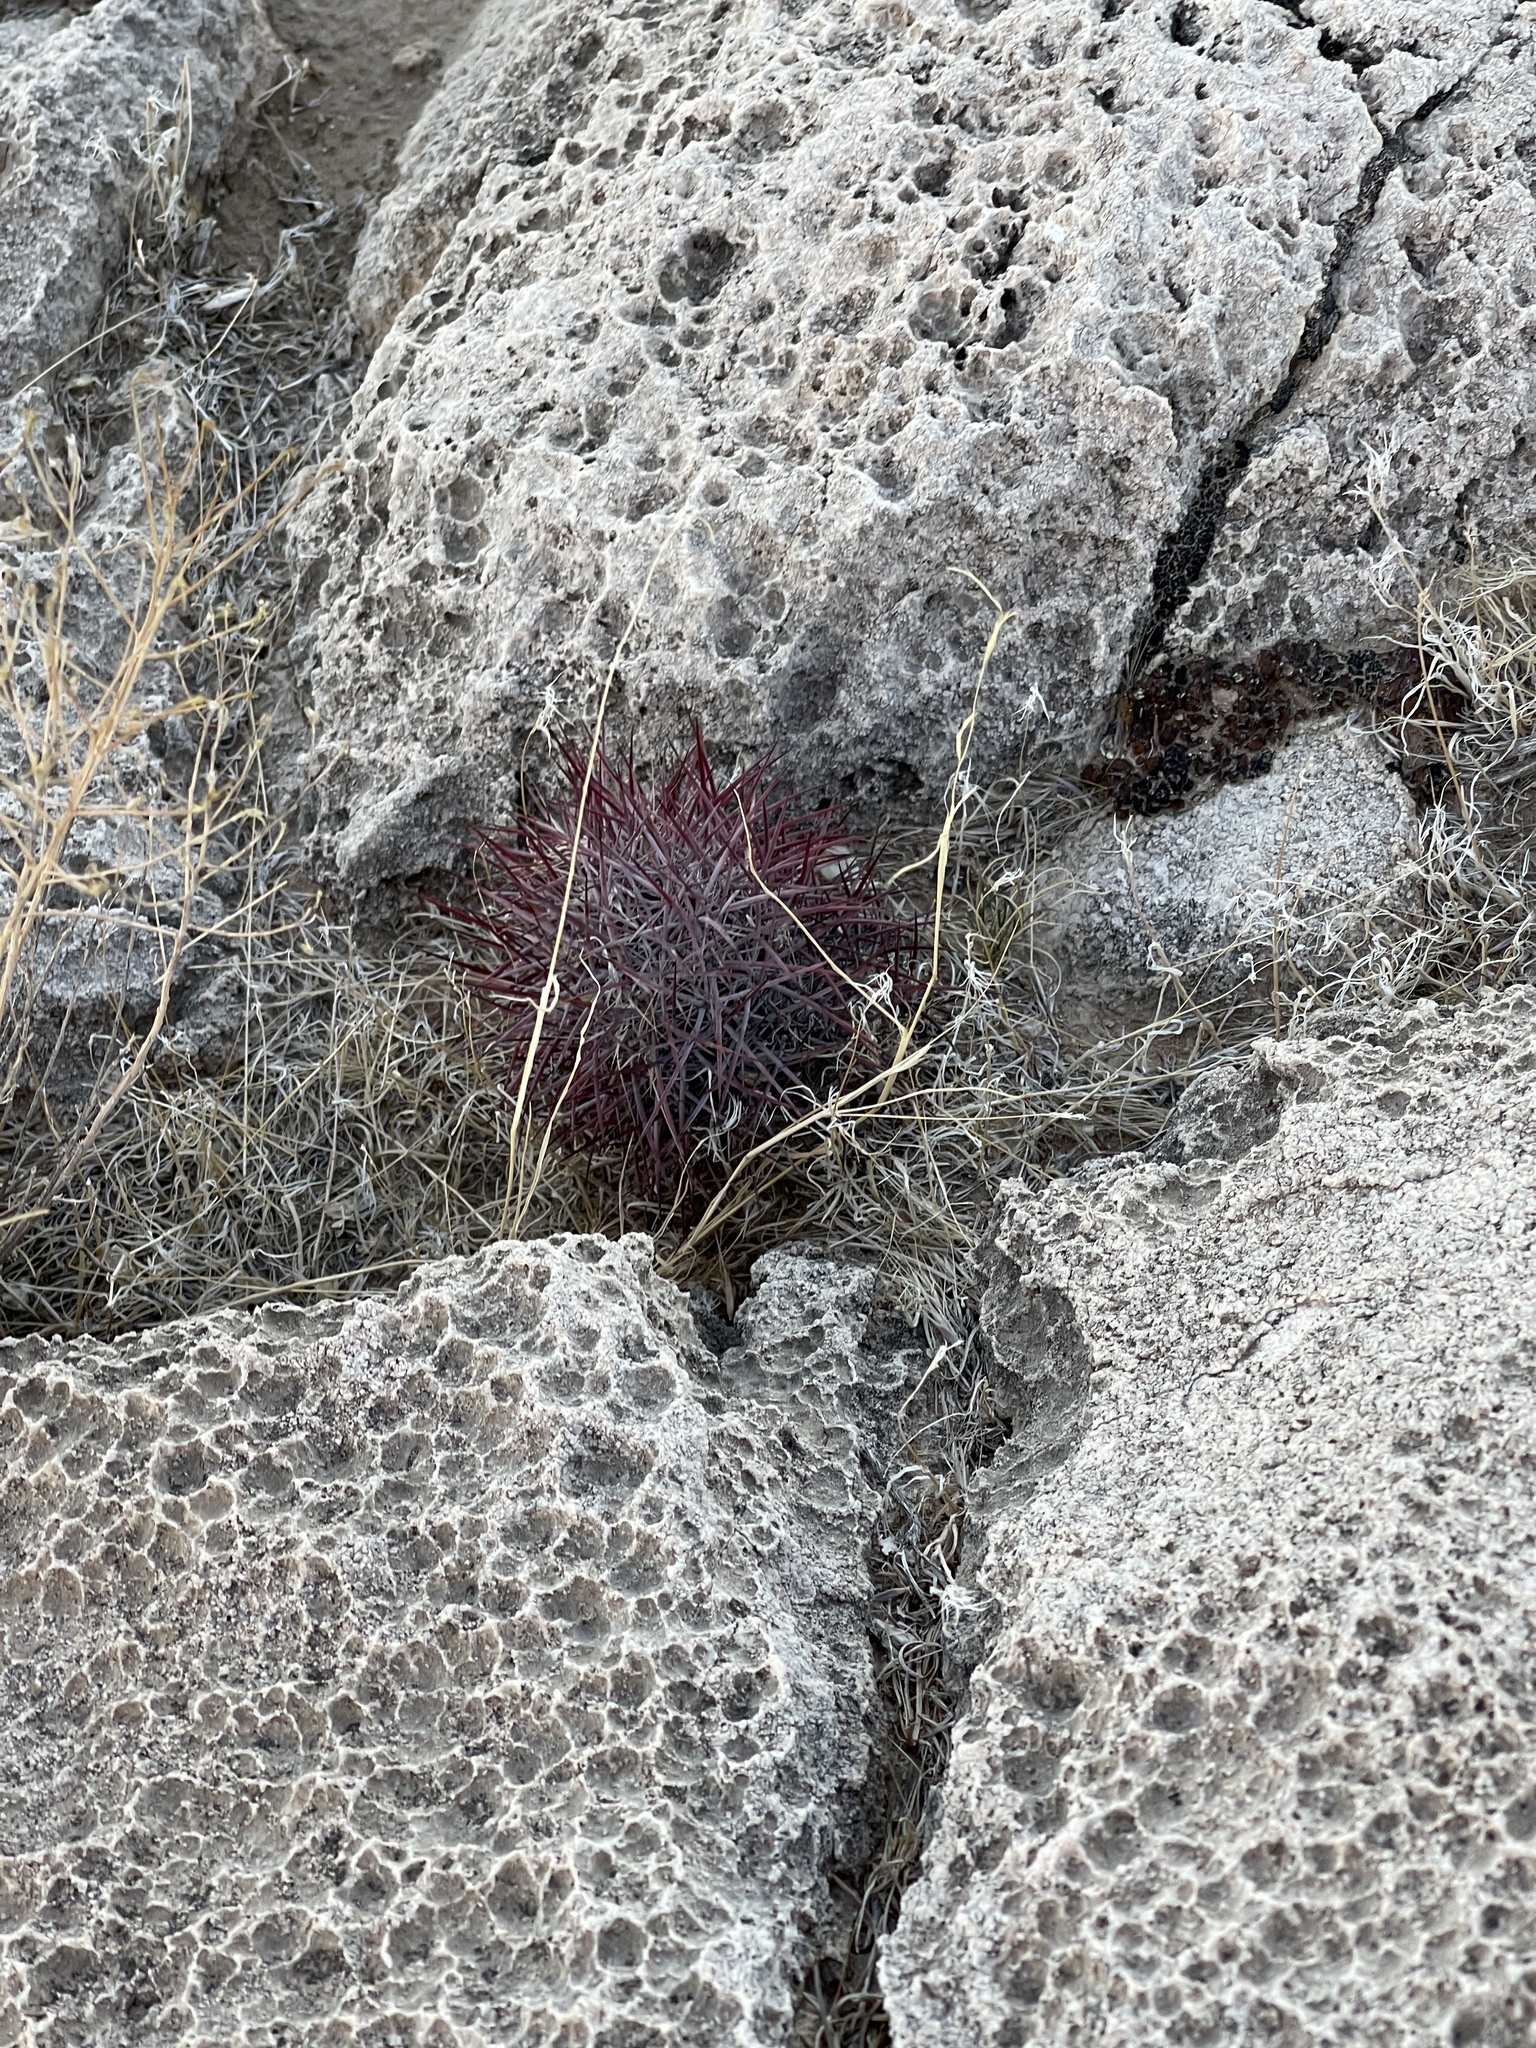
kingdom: Plantae
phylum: Tracheophyta
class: Magnoliopsida
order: Caryophyllales
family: Cactaceae
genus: Sclerocactus
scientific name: Sclerocactus johnsonii
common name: Eight-spine fishhook cactus
